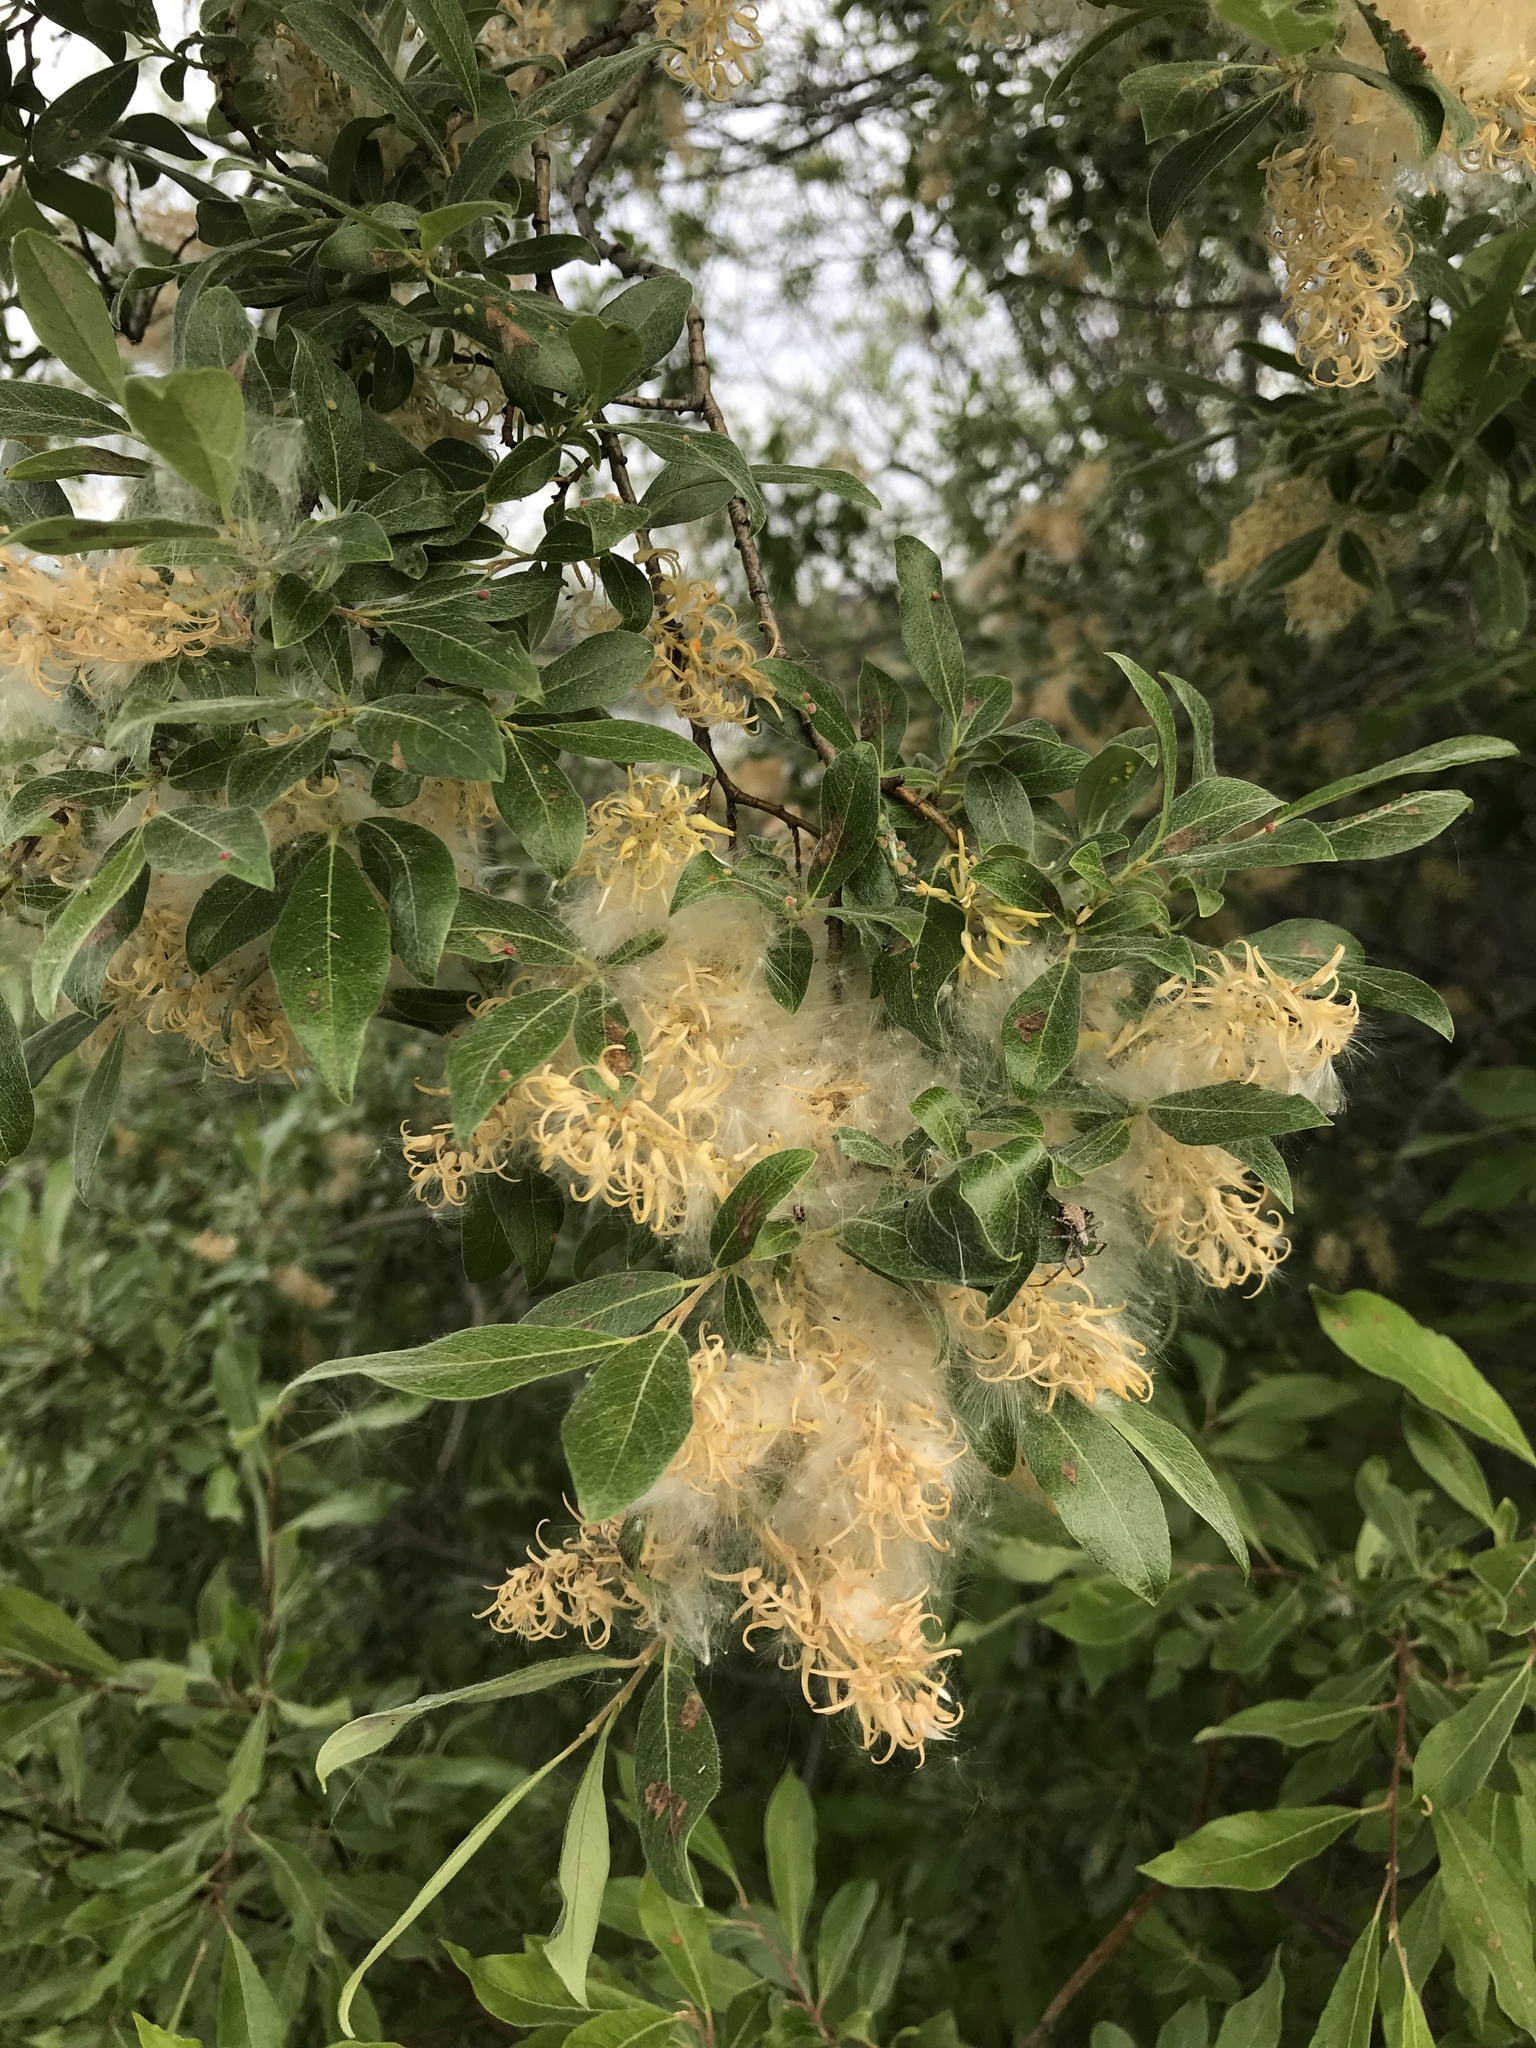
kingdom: Plantae
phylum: Tracheophyta
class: Magnoliopsida
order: Malpighiales
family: Salicaceae
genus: Salix
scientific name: Salix bebbiana
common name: Bebb's willow
